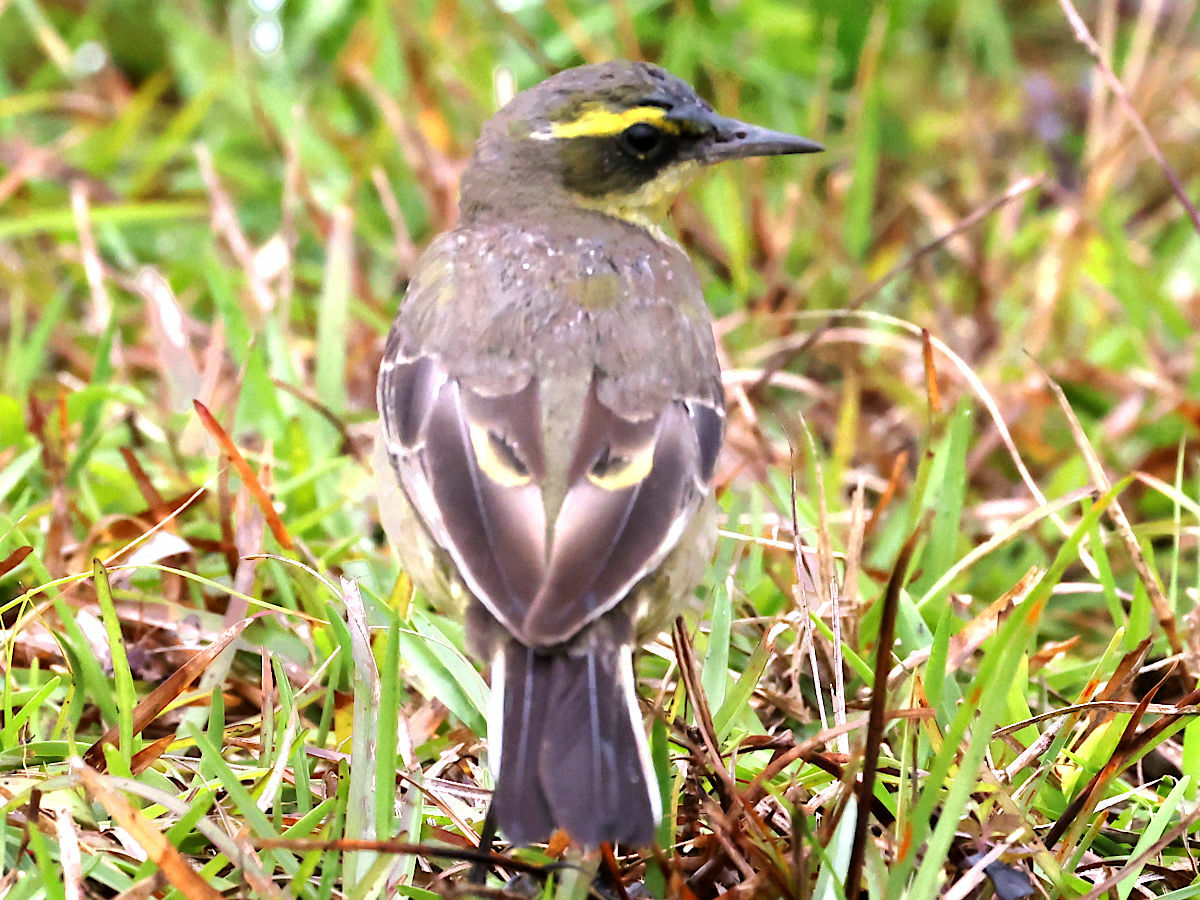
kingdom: Animalia
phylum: Chordata
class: Aves
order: Passeriformes
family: Motacillidae
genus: Motacilla
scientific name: Motacilla tschutschensis
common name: Eastern yellow wagtail
